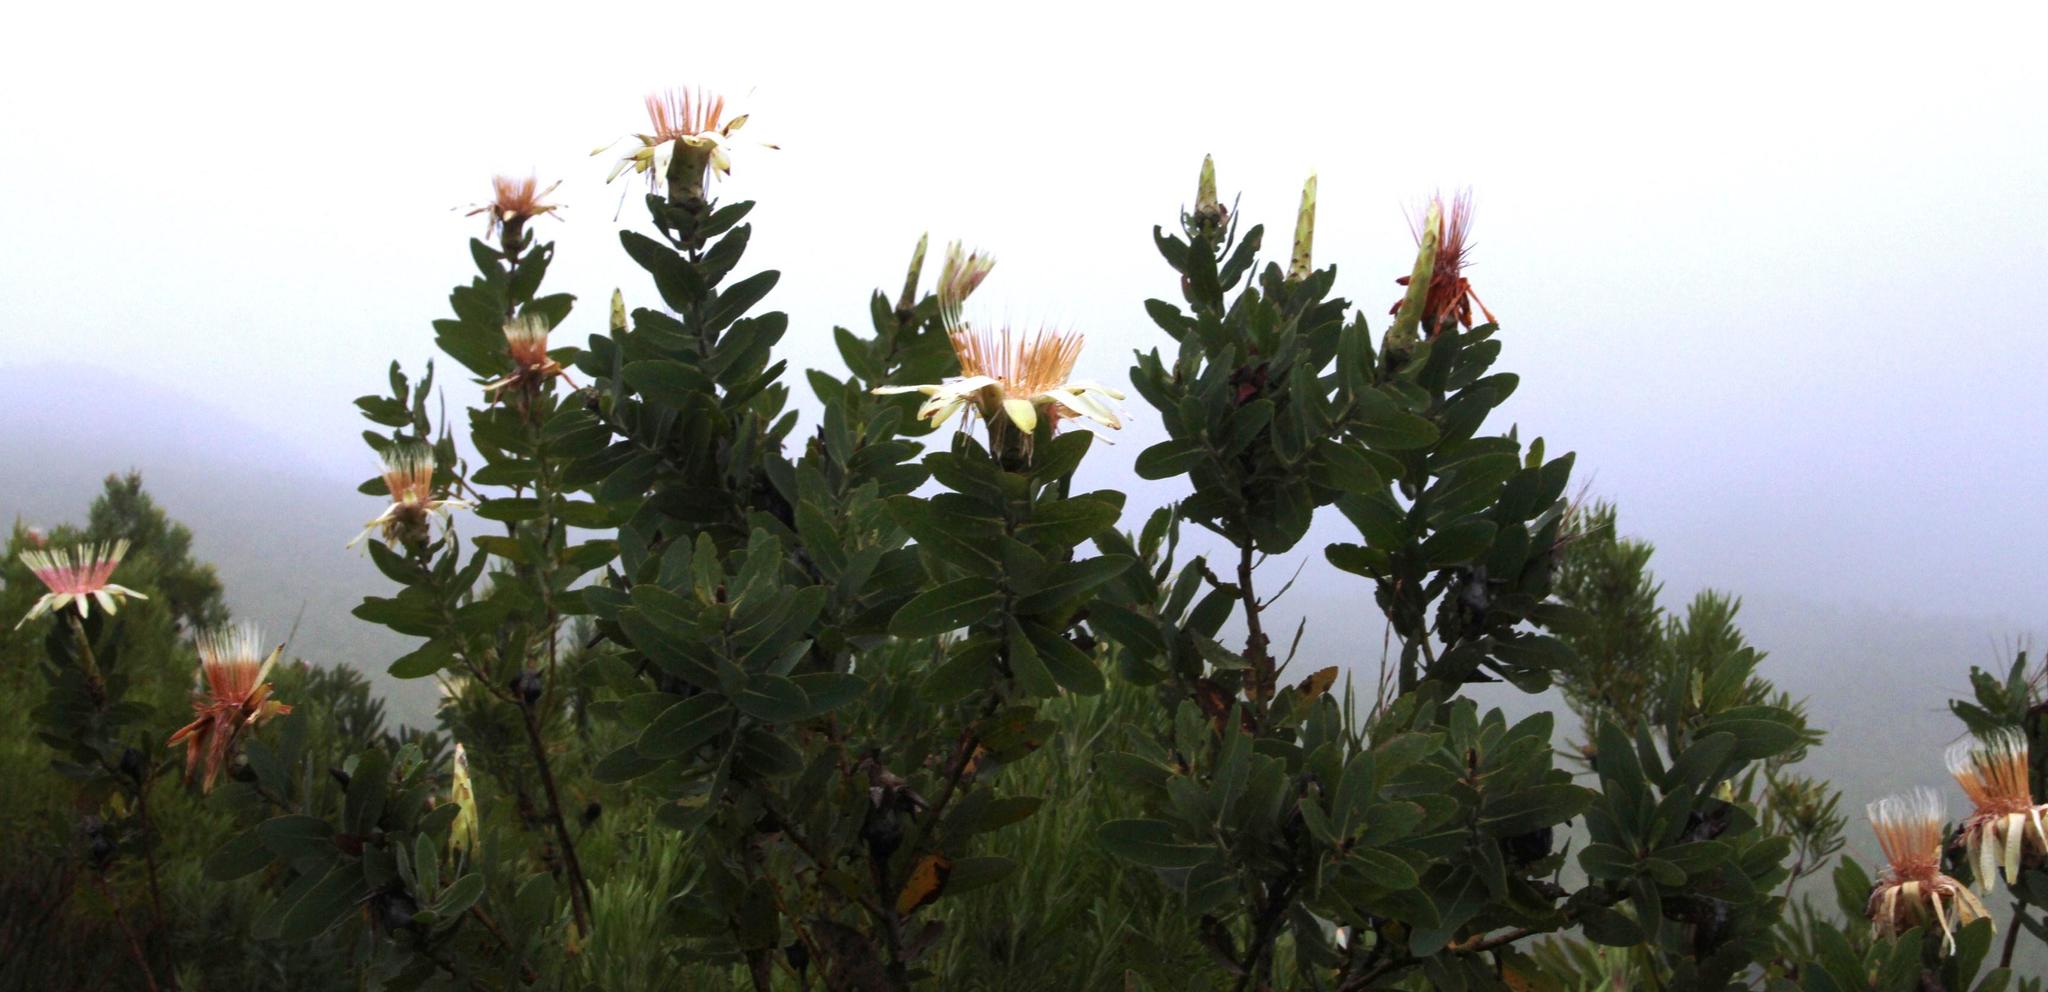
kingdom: Plantae
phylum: Tracheophyta
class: Magnoliopsida
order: Proteales
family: Proteaceae
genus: Protea
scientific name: Protea aurea
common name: Shuttlecock sugarbush
